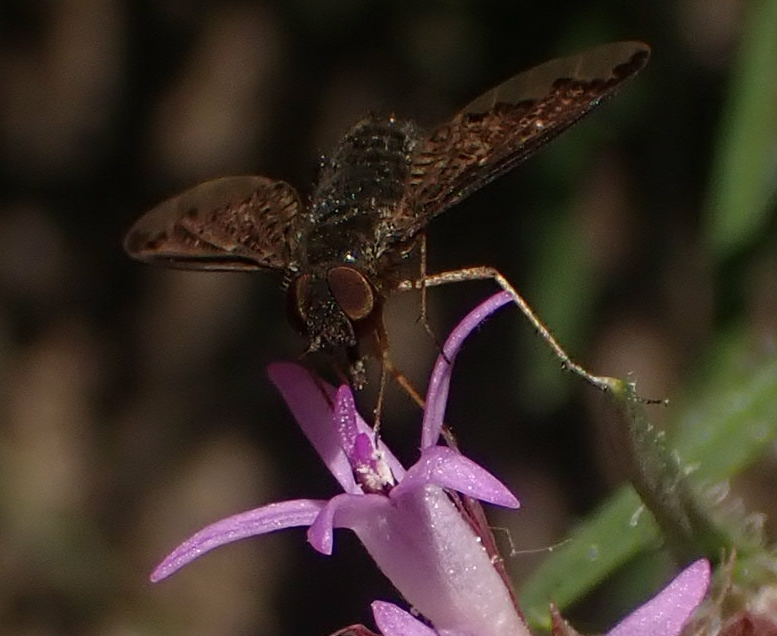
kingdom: Animalia
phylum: Arthropoda
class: Insecta
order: Diptera
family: Bombyliidae
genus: Hemipenthes
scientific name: Hemipenthes sinuosus
